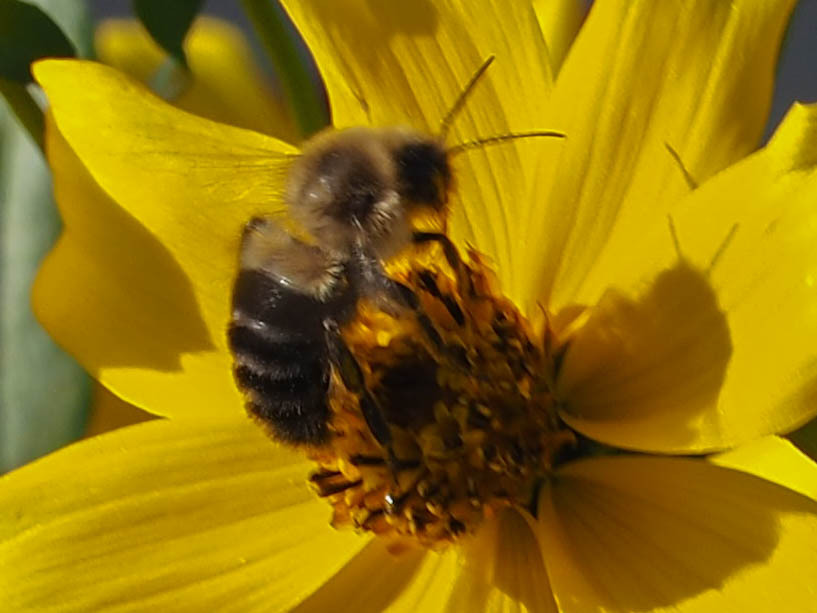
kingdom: Animalia
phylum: Arthropoda
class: Insecta
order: Hymenoptera
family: Apidae
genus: Bombus
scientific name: Bombus impatiens
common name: Common eastern bumble bee
